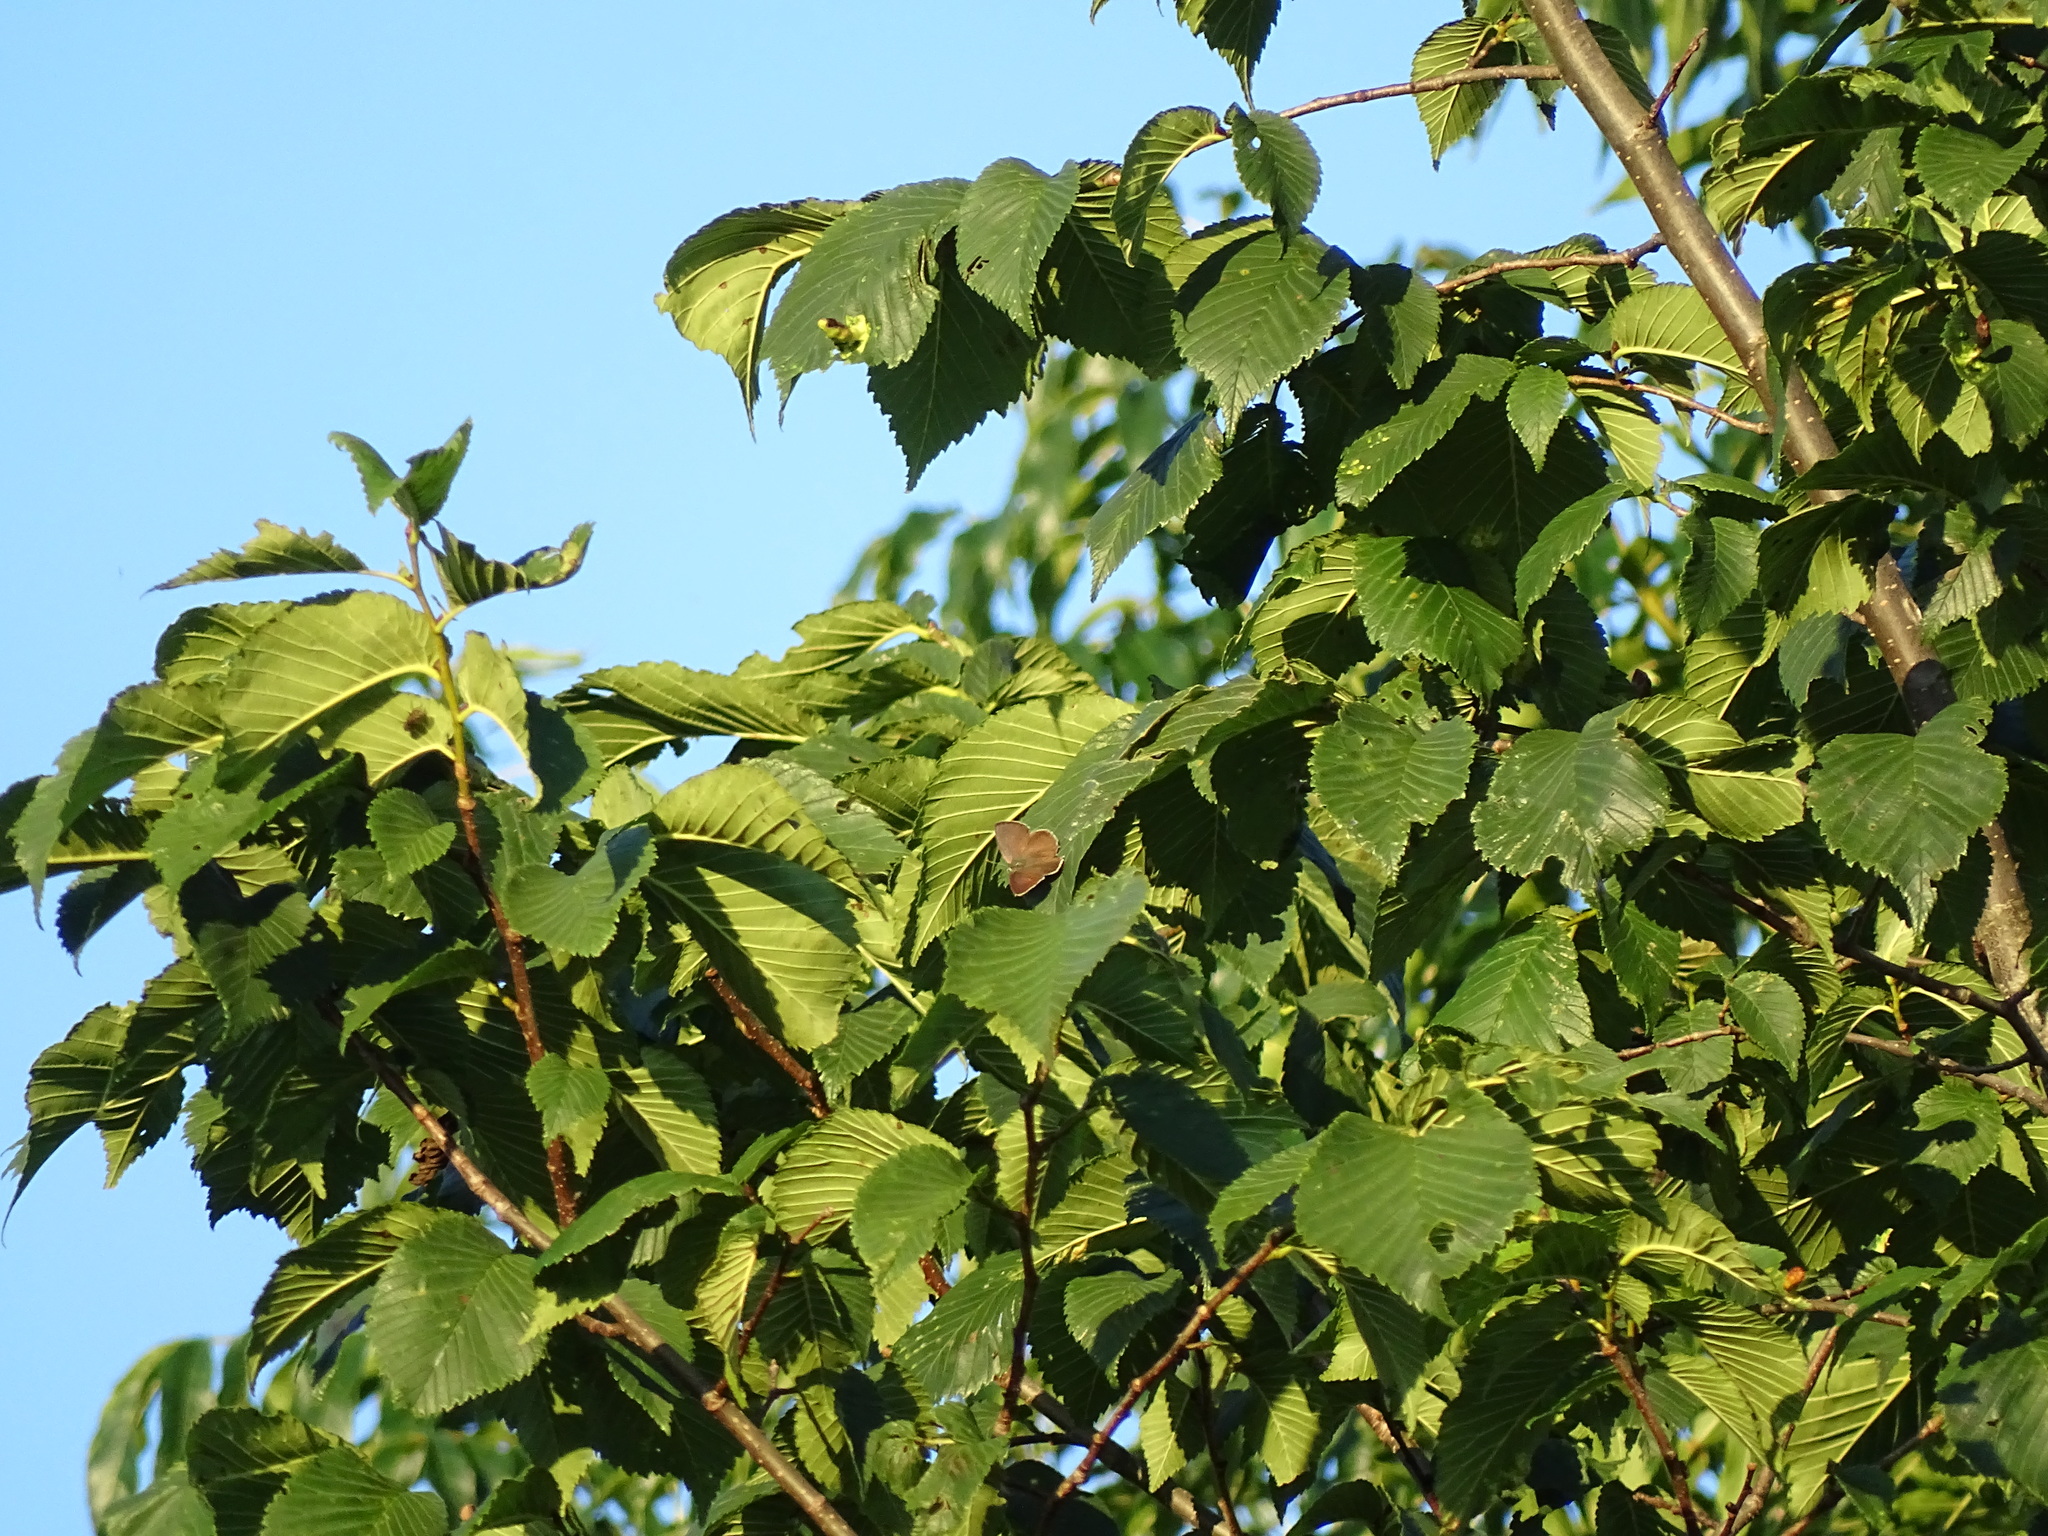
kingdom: Animalia
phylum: Arthropoda
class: Insecta
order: Lepidoptera
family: Lycaenidae
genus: Quercusia
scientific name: Quercusia quercus
